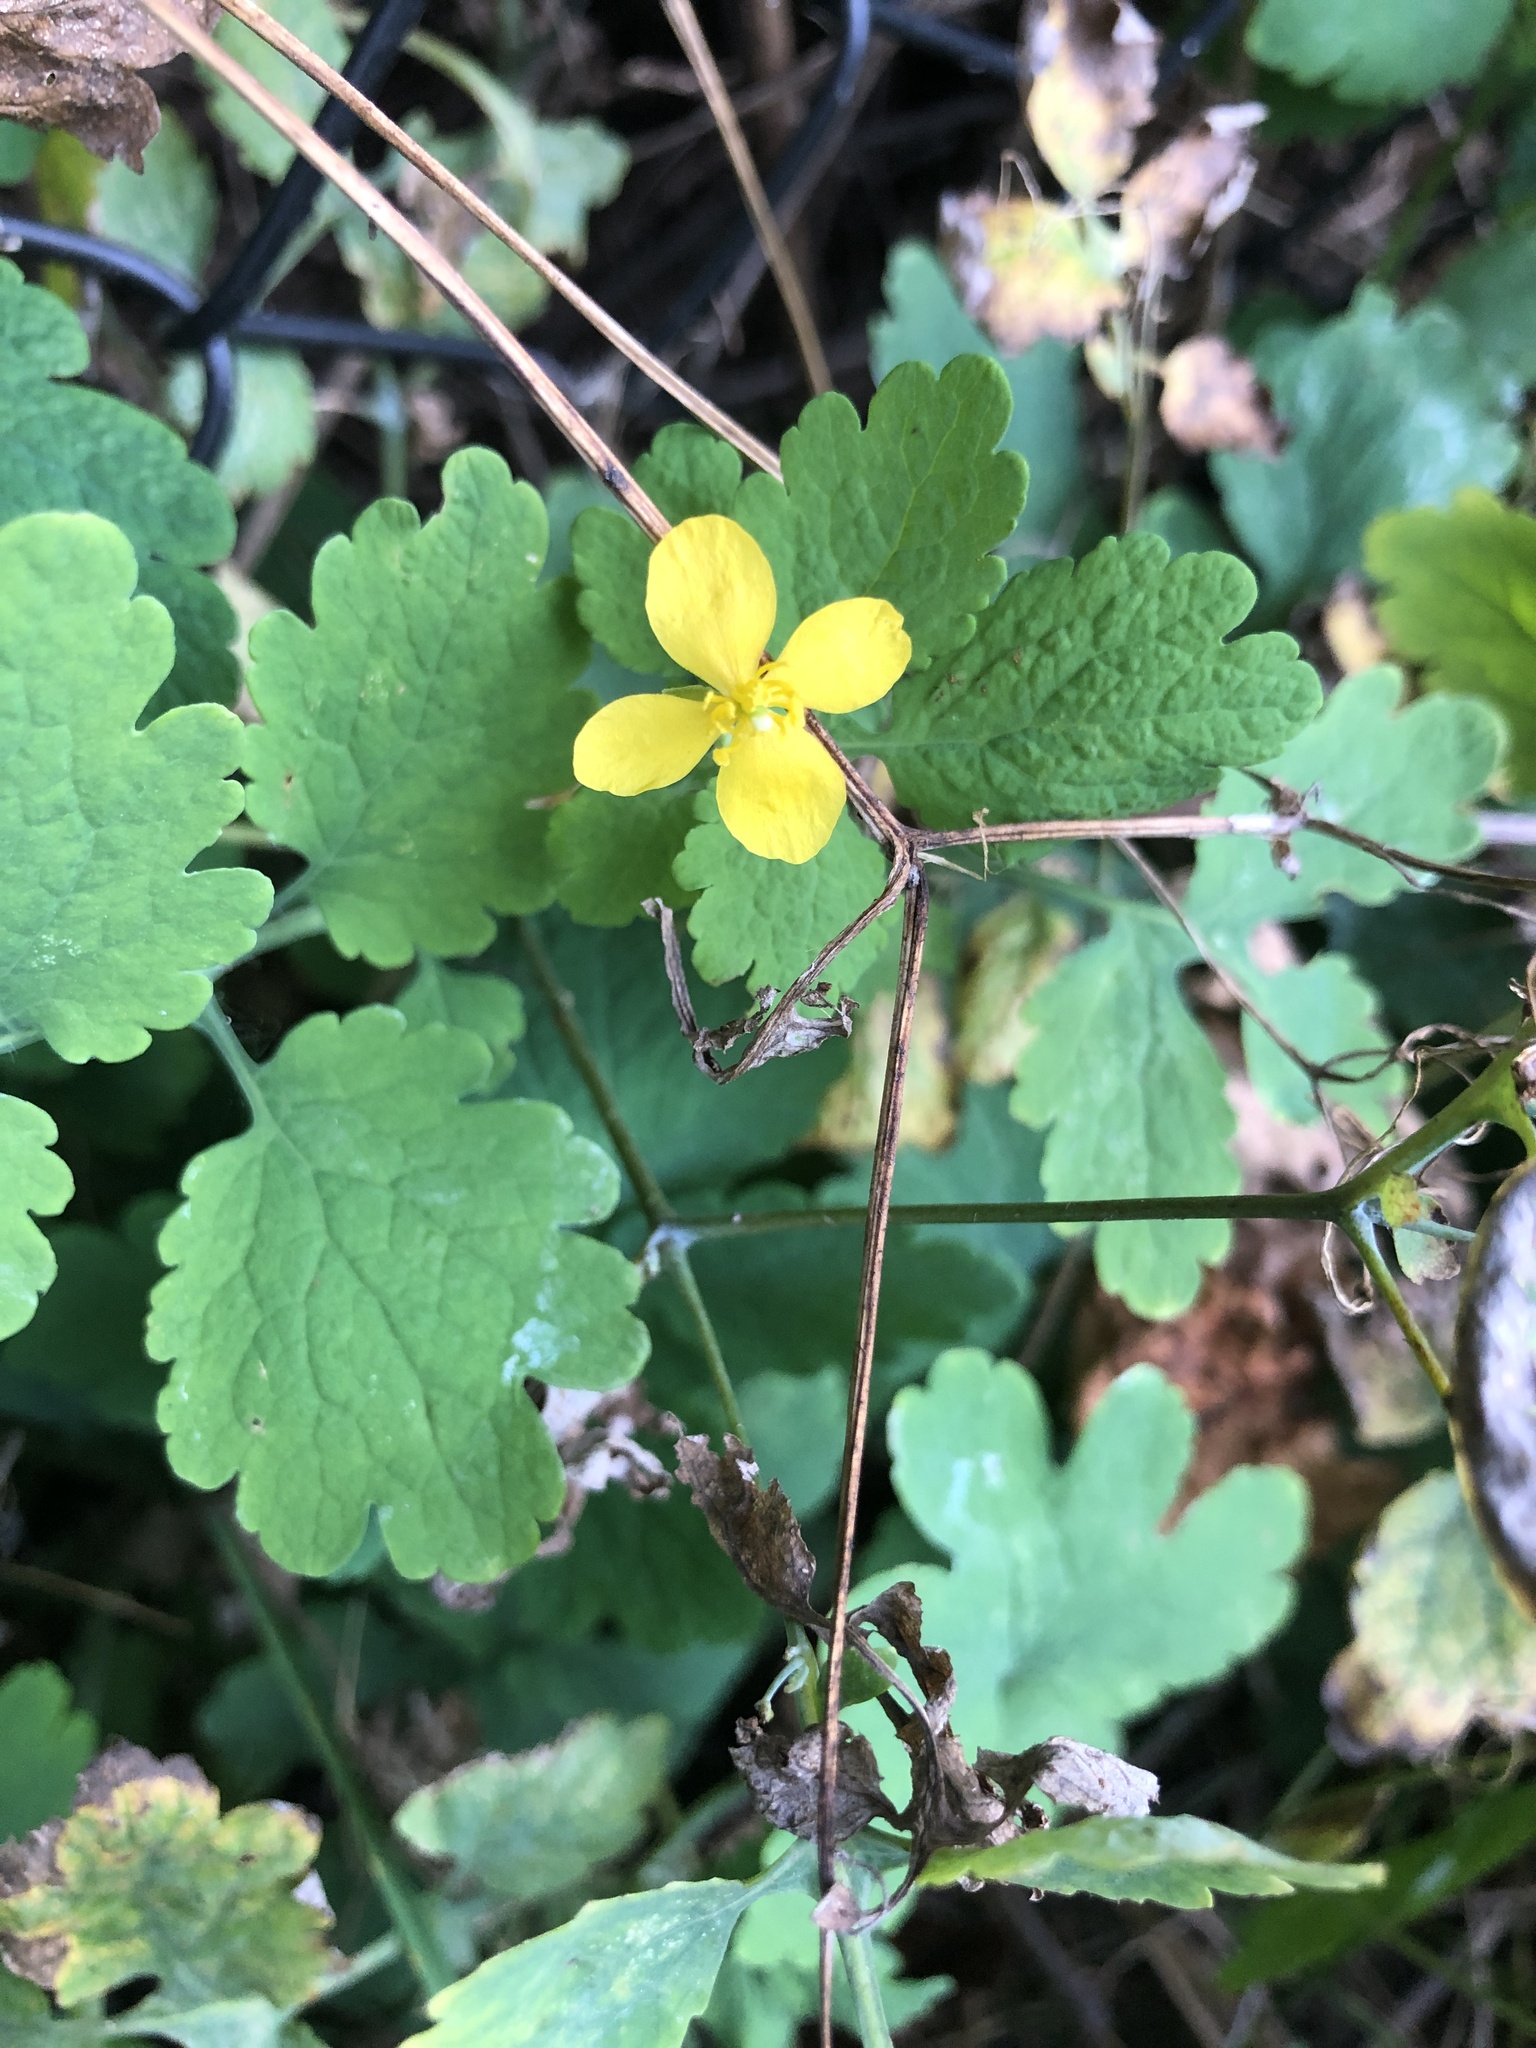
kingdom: Plantae
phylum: Tracheophyta
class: Magnoliopsida
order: Ranunculales
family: Papaveraceae
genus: Chelidonium
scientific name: Chelidonium majus
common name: Greater celandine
